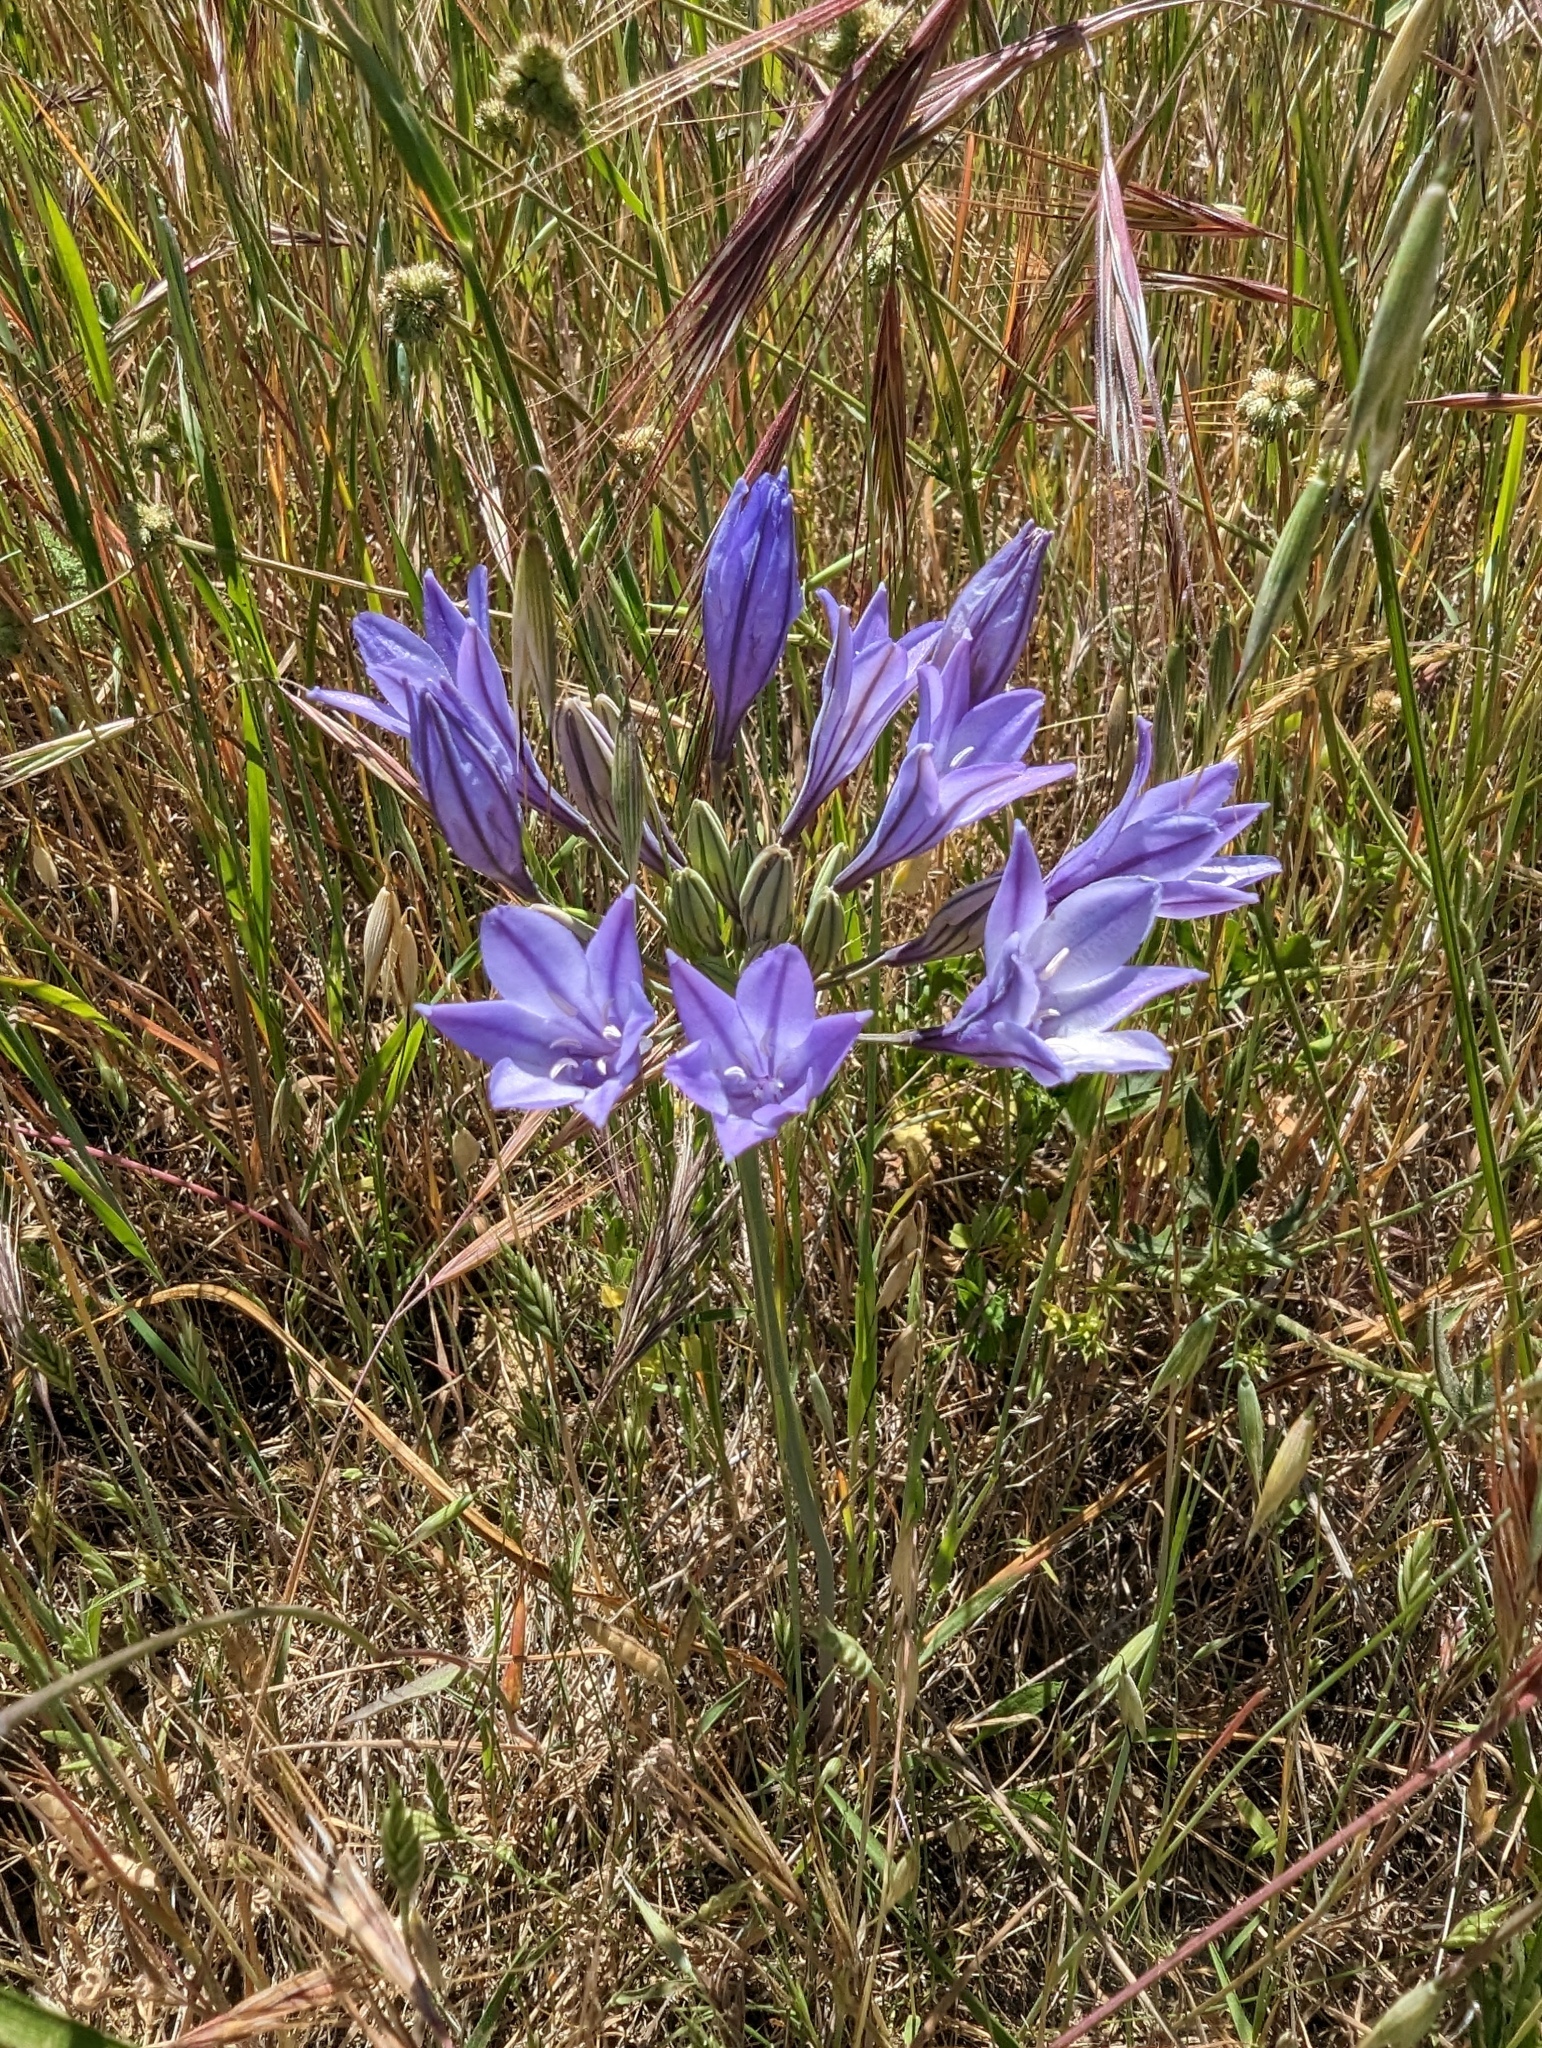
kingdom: Plantae
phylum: Tracheophyta
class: Liliopsida
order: Asparagales
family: Asparagaceae
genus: Triteleia
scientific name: Triteleia laxa
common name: Triplet-lily
